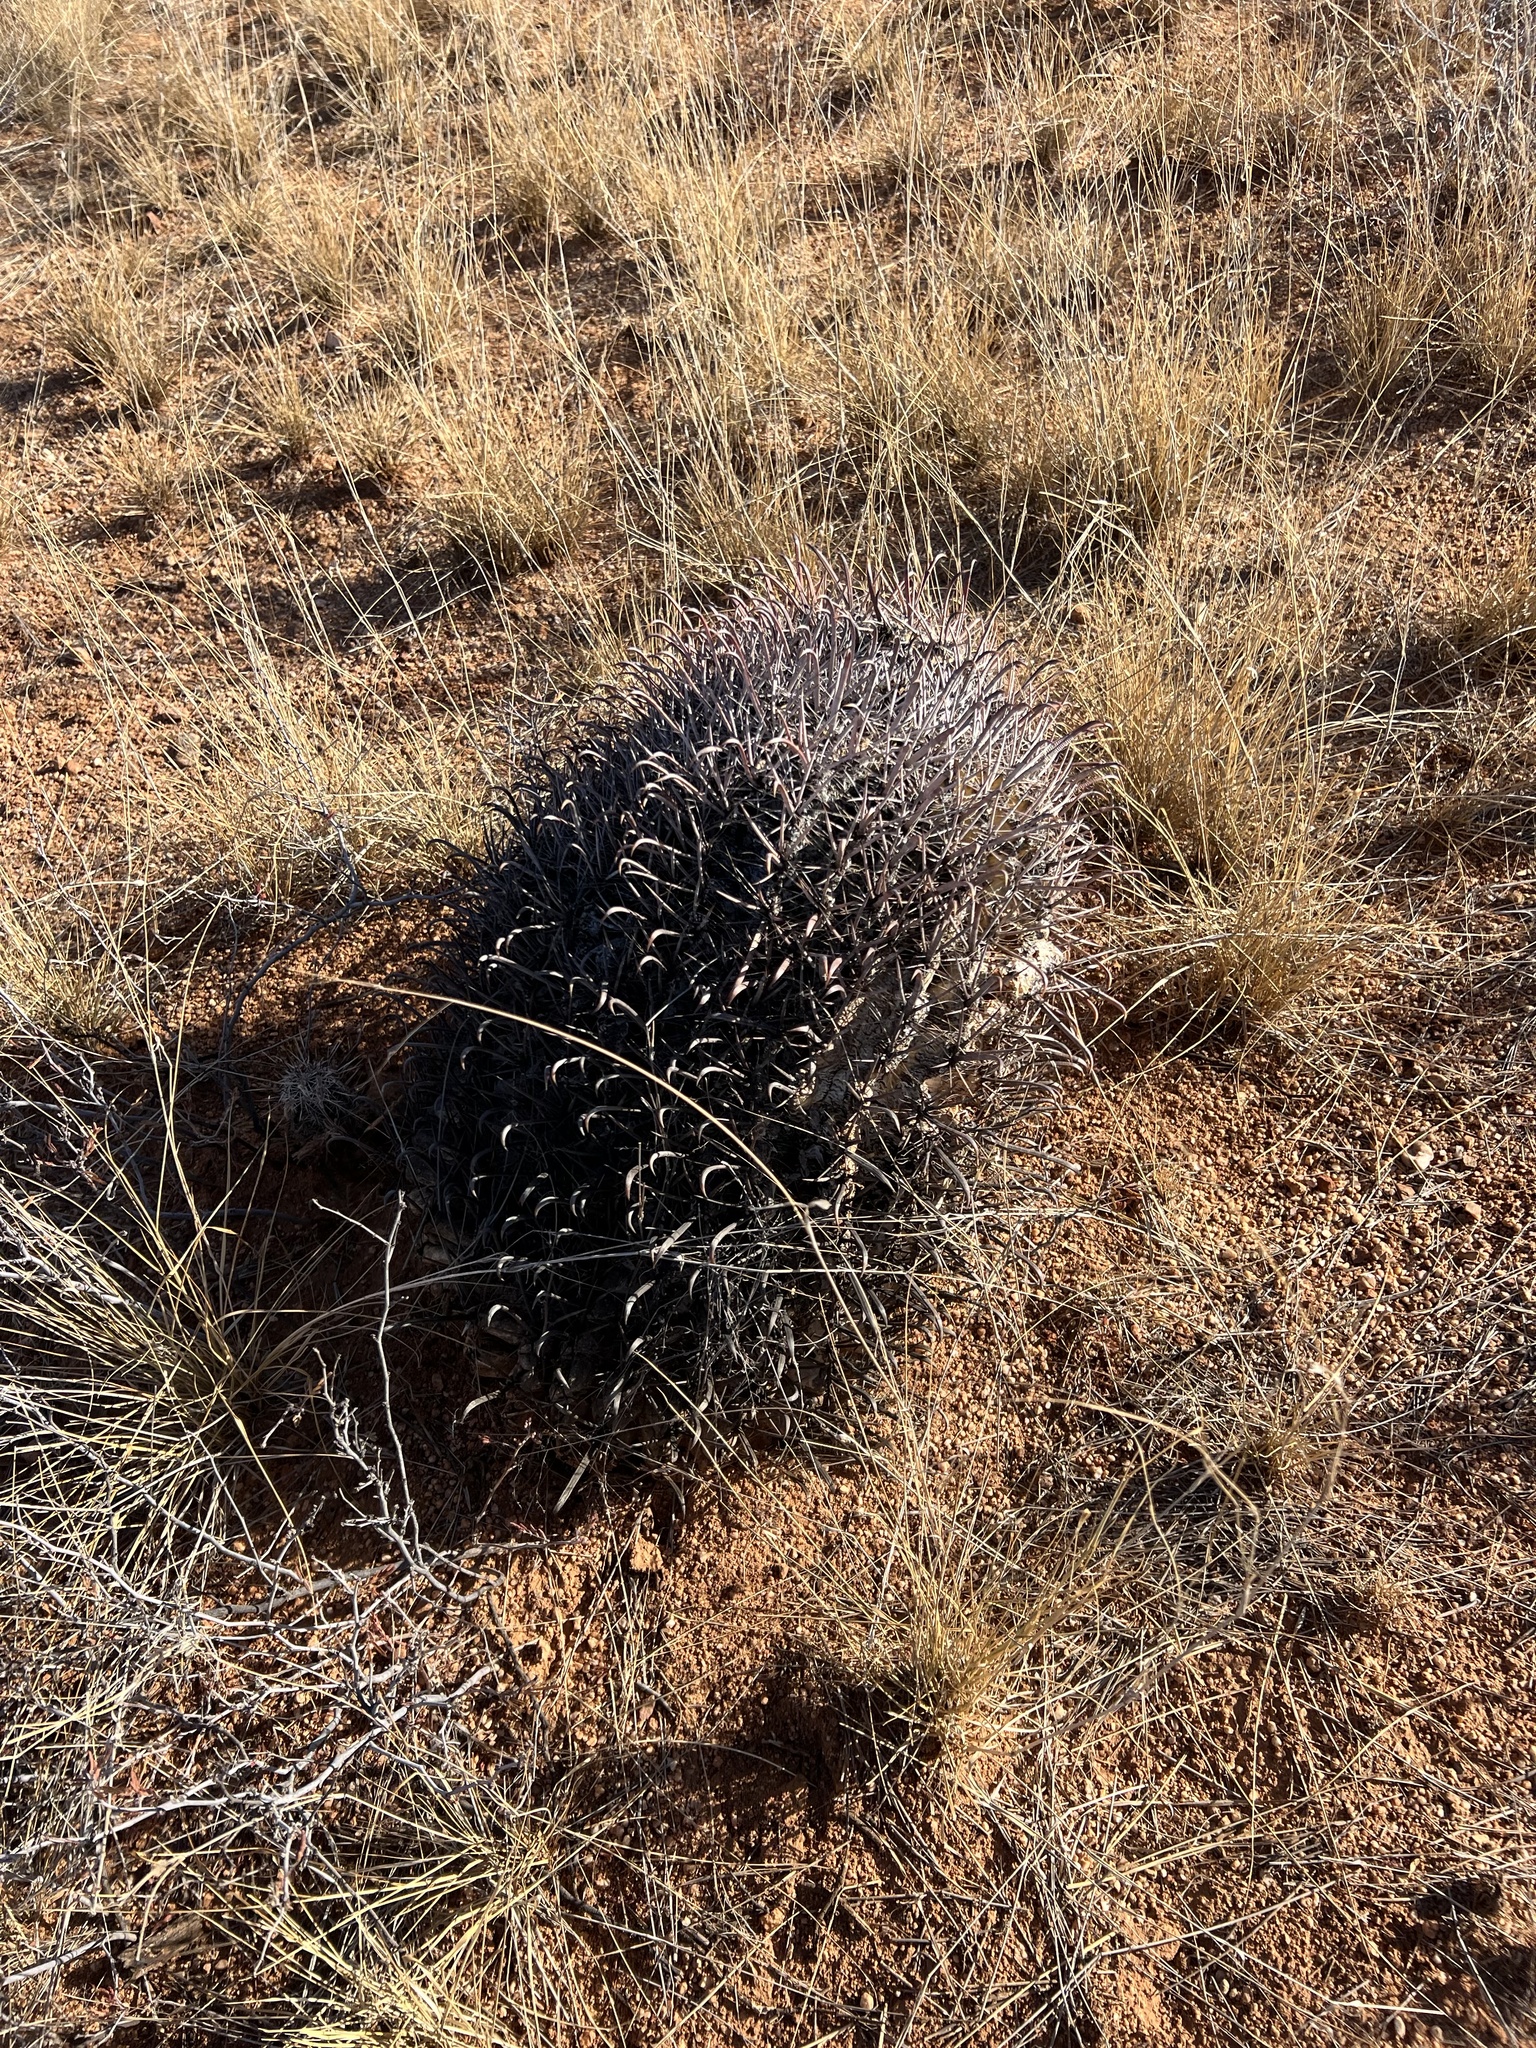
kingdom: Plantae
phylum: Tracheophyta
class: Magnoliopsida
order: Caryophyllales
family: Cactaceae
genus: Ferocactus
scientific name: Ferocactus wislizeni
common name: Candy barrel cactus
